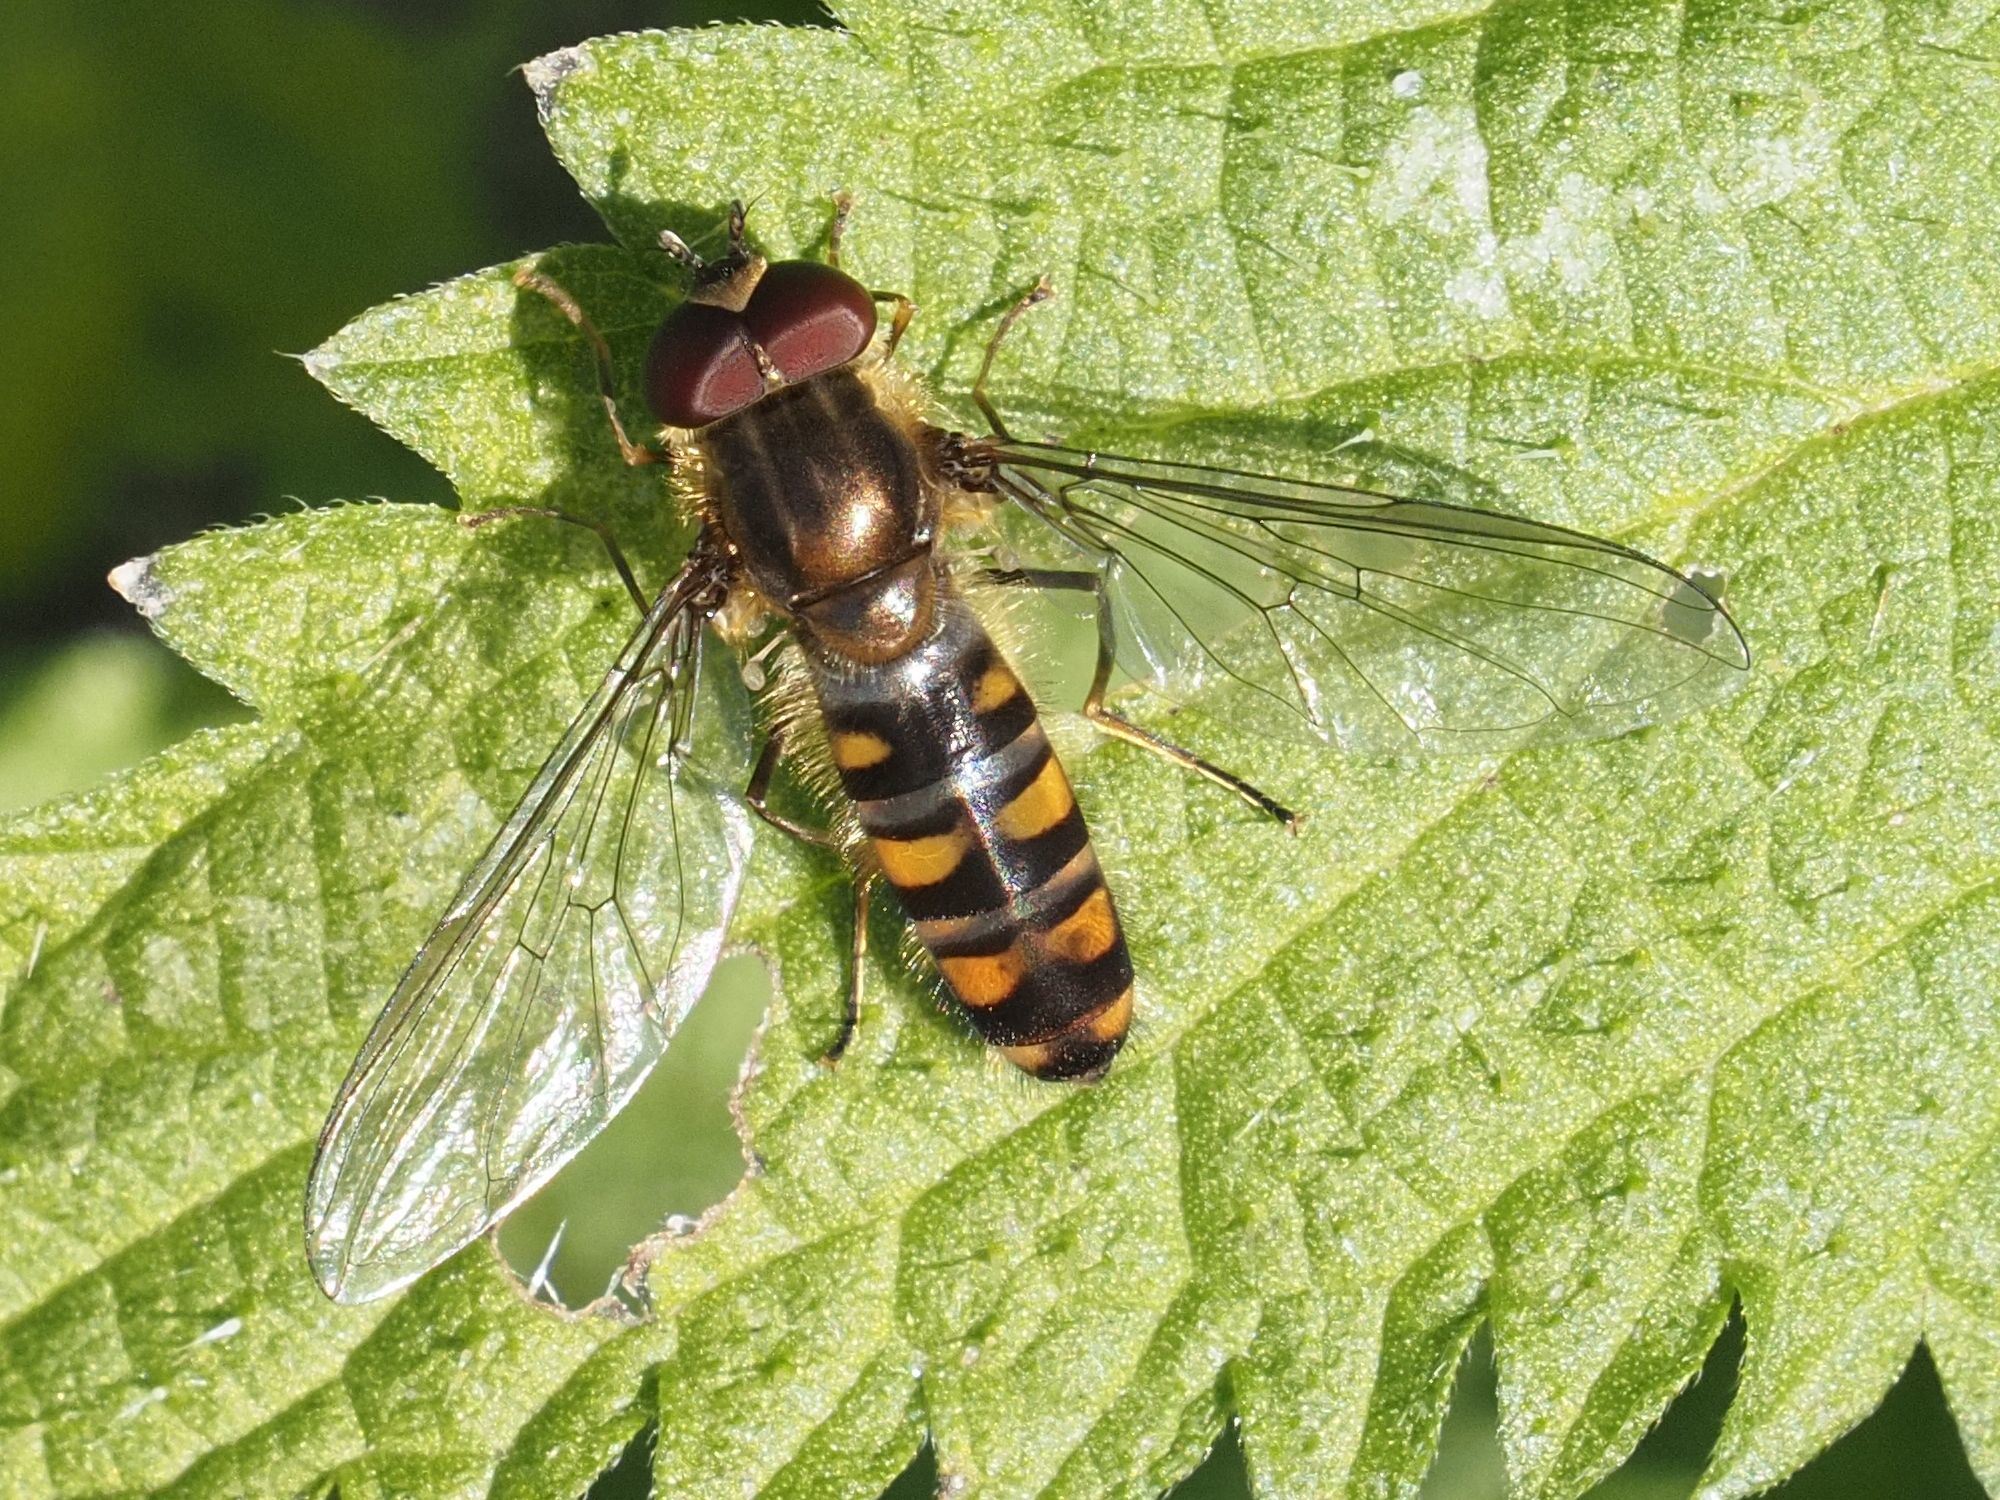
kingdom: Animalia
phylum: Arthropoda
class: Insecta
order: Diptera
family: Syrphidae
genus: Episyrphus
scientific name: Episyrphus balteatus
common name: Marmalade hoverfly
